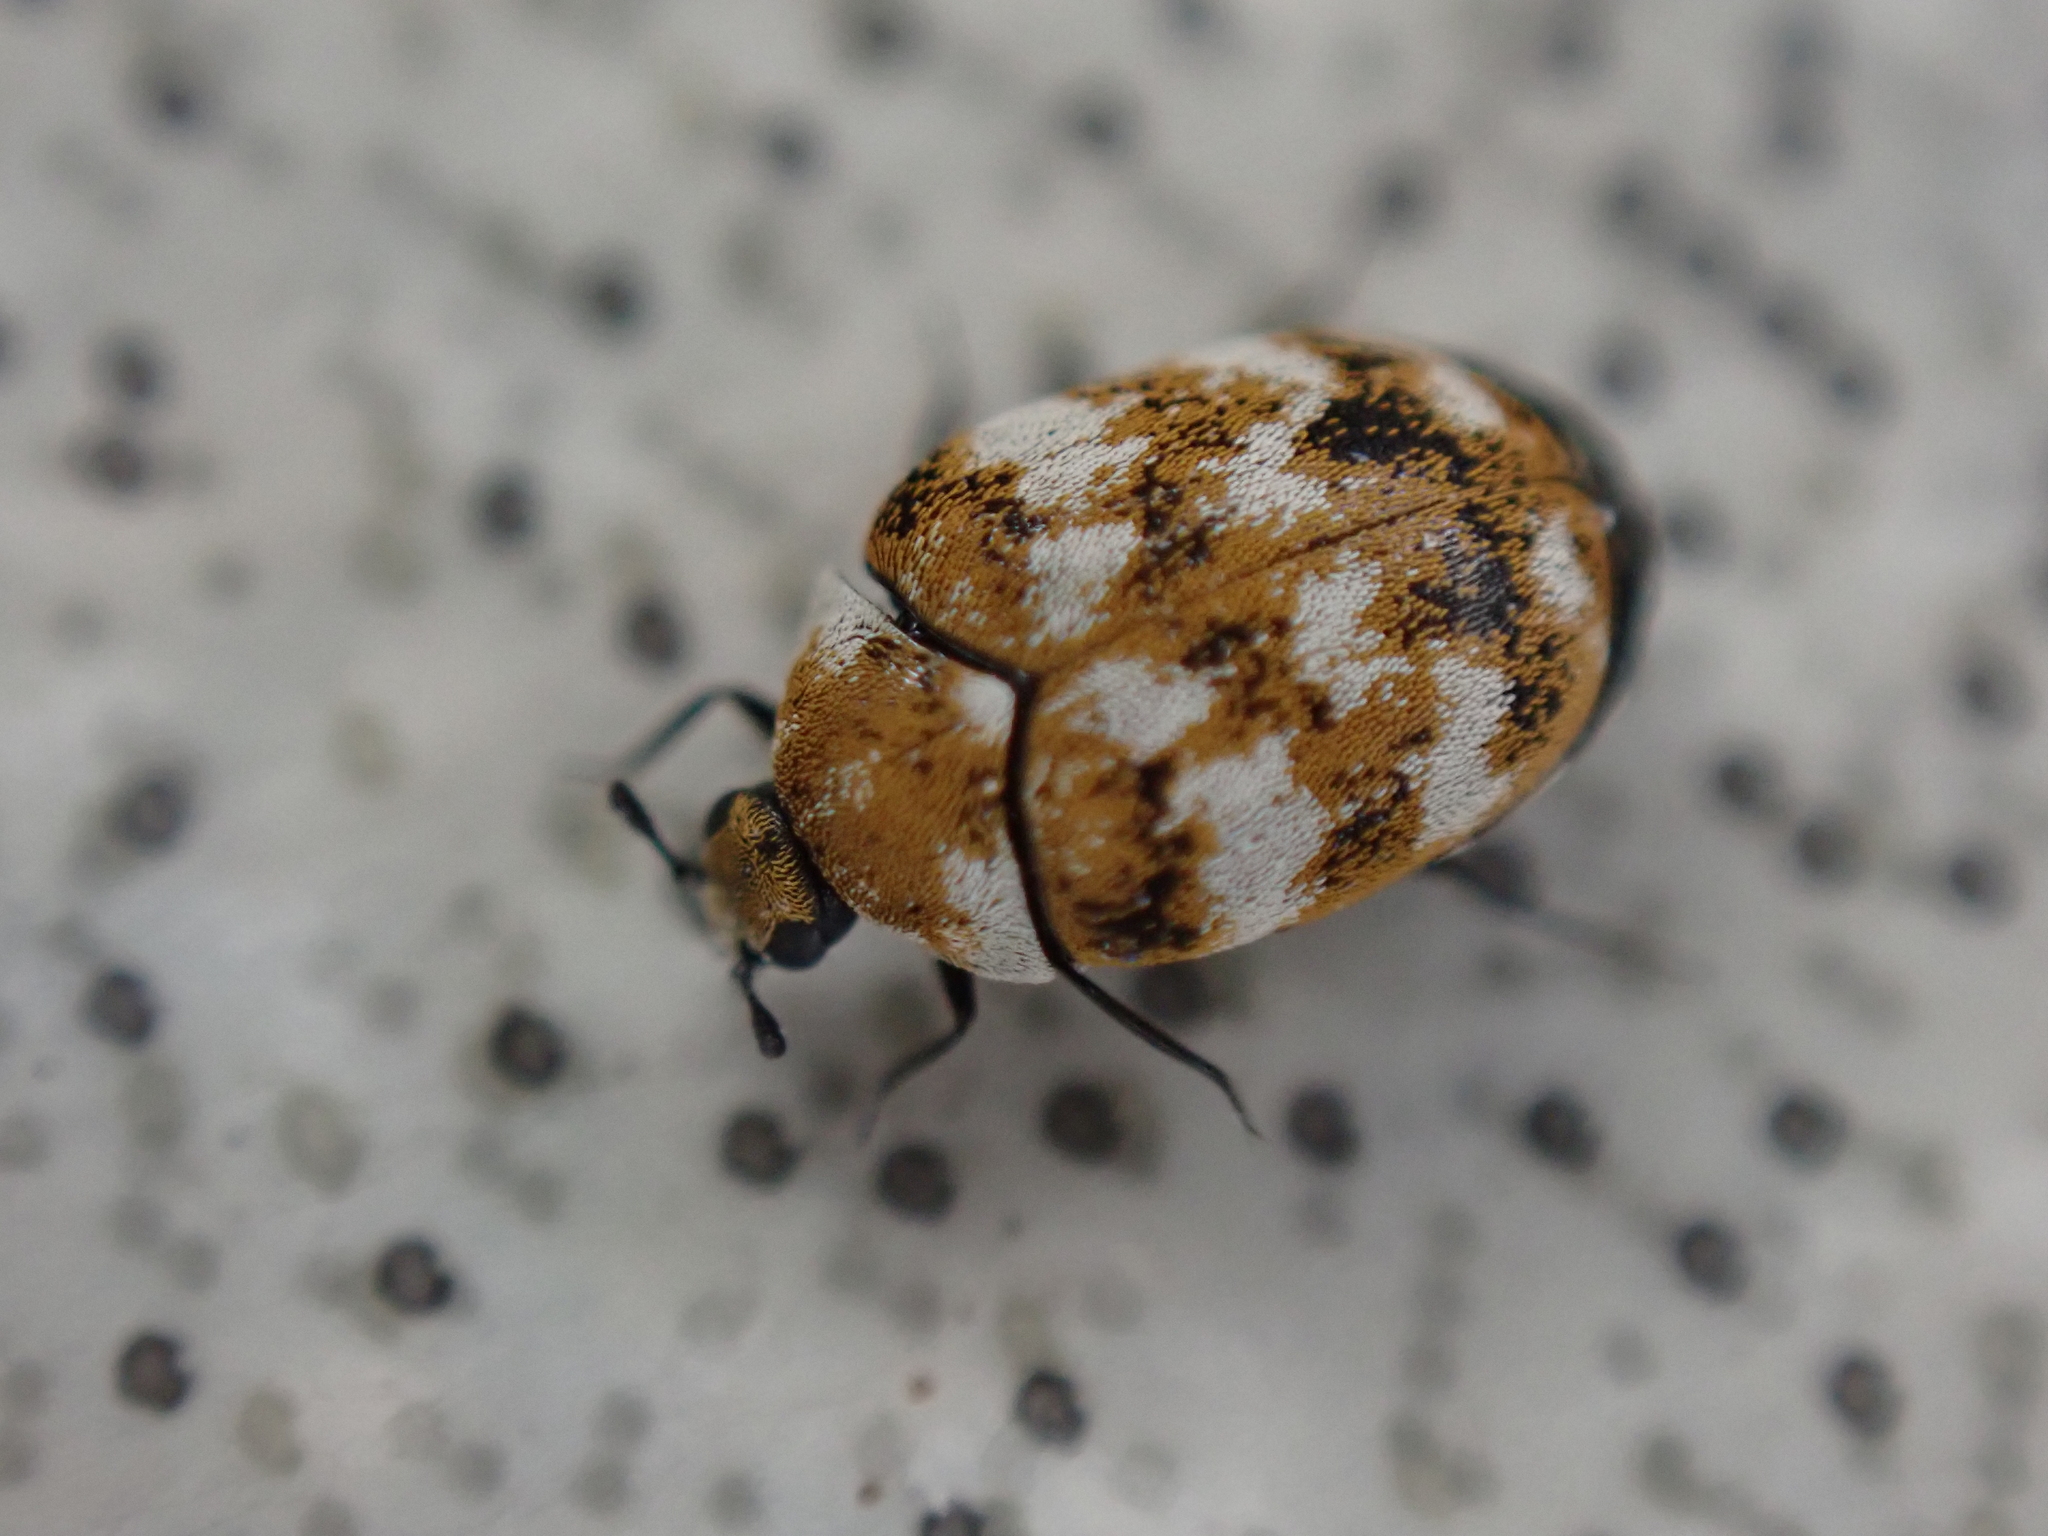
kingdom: Animalia
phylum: Arthropoda
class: Insecta
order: Coleoptera
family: Dermestidae
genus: Anthrenus
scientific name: Anthrenus verbasci
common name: Varied carpet beetle
